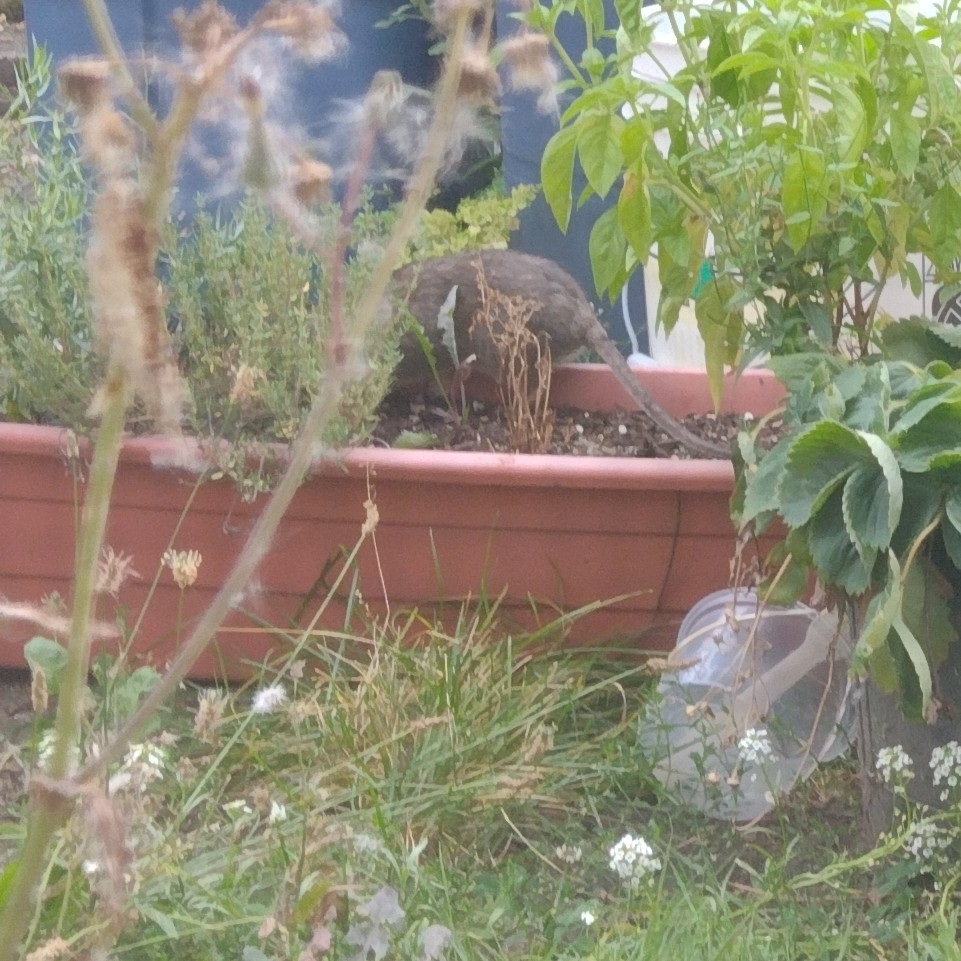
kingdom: Animalia
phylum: Chordata
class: Mammalia
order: Rodentia
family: Muridae
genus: Rattus
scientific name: Rattus norvegicus
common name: Brown rat
